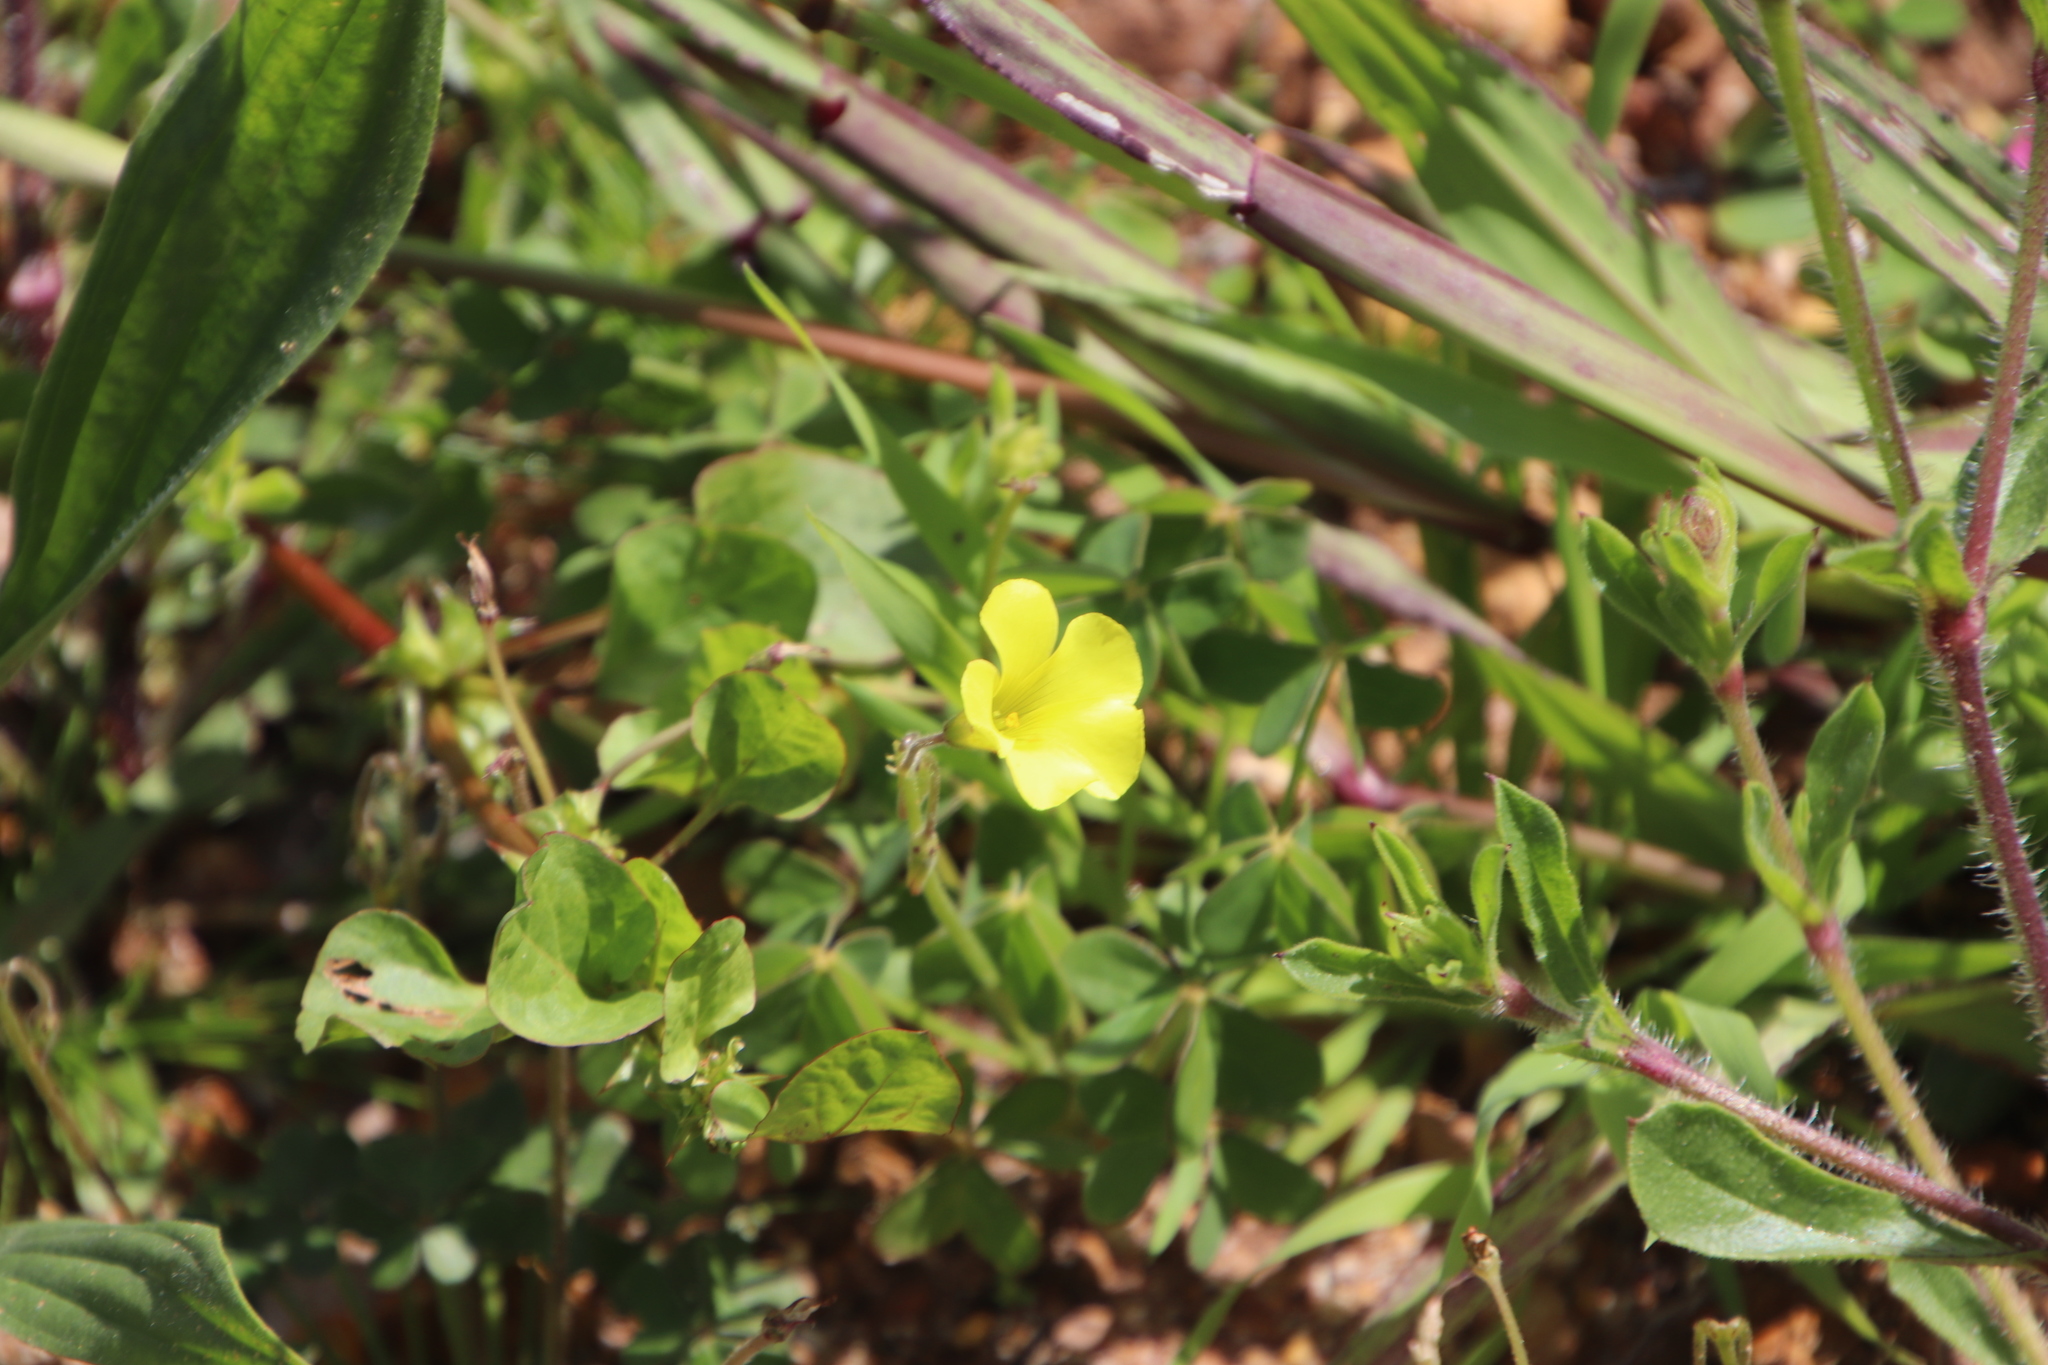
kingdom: Plantae
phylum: Tracheophyta
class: Magnoliopsida
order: Oxalidales
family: Oxalidaceae
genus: Oxalis
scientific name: Oxalis pes-caprae
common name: Bermuda-buttercup
